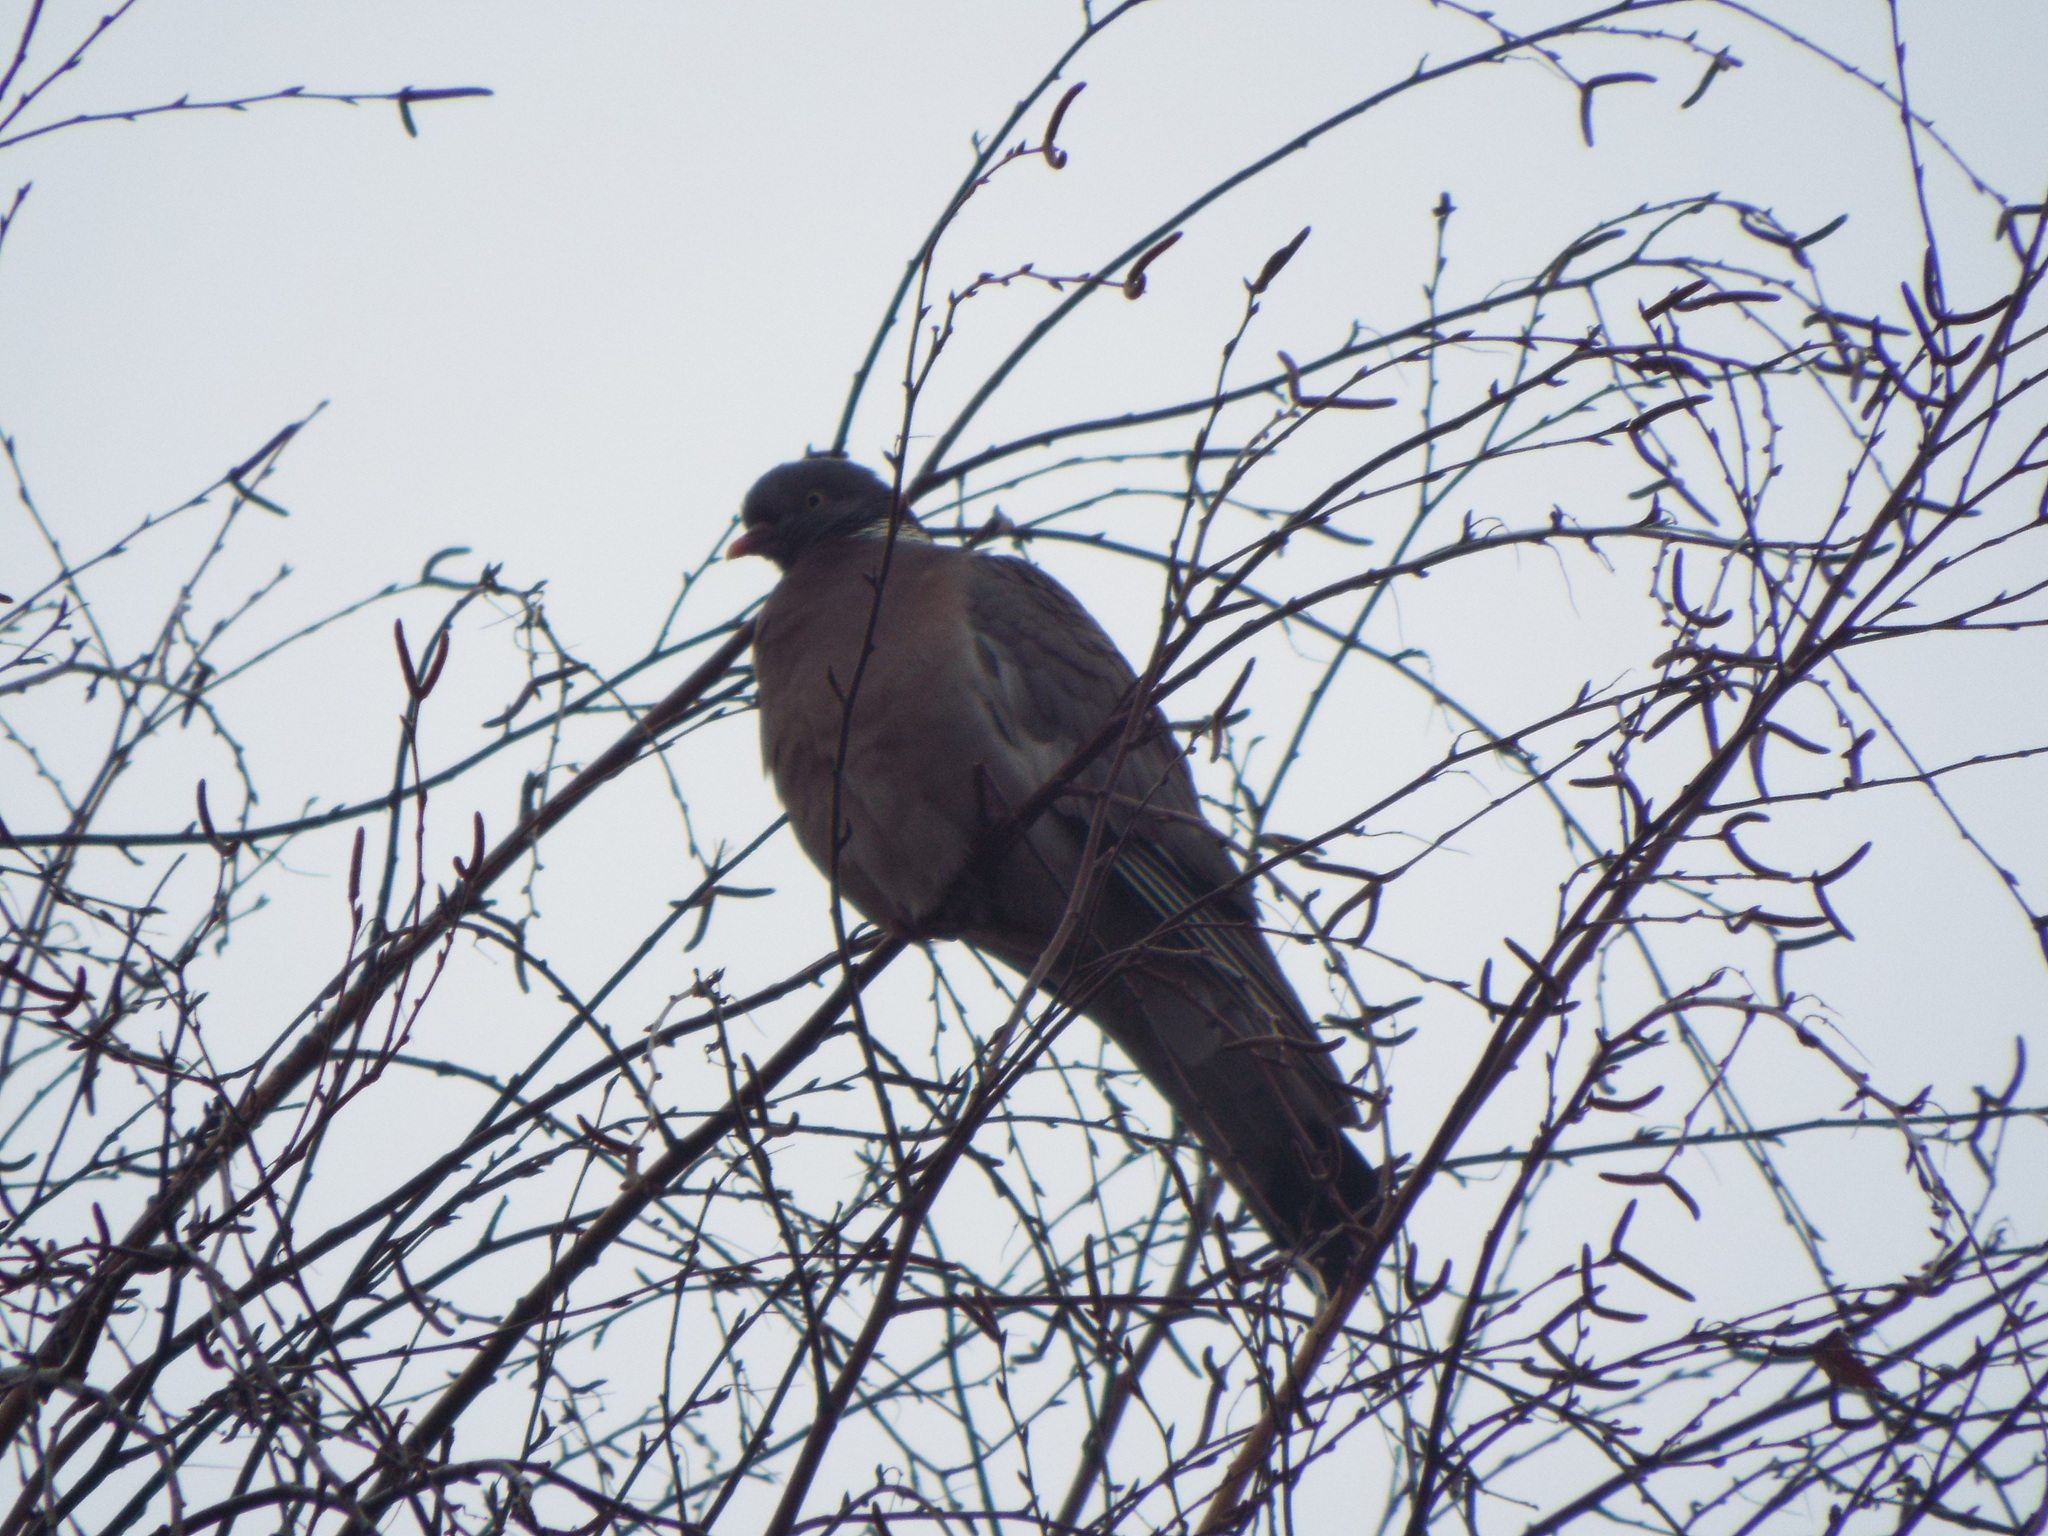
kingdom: Animalia
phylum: Chordata
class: Aves
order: Columbiformes
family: Columbidae
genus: Columba
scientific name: Columba palumbus
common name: Common wood pigeon
